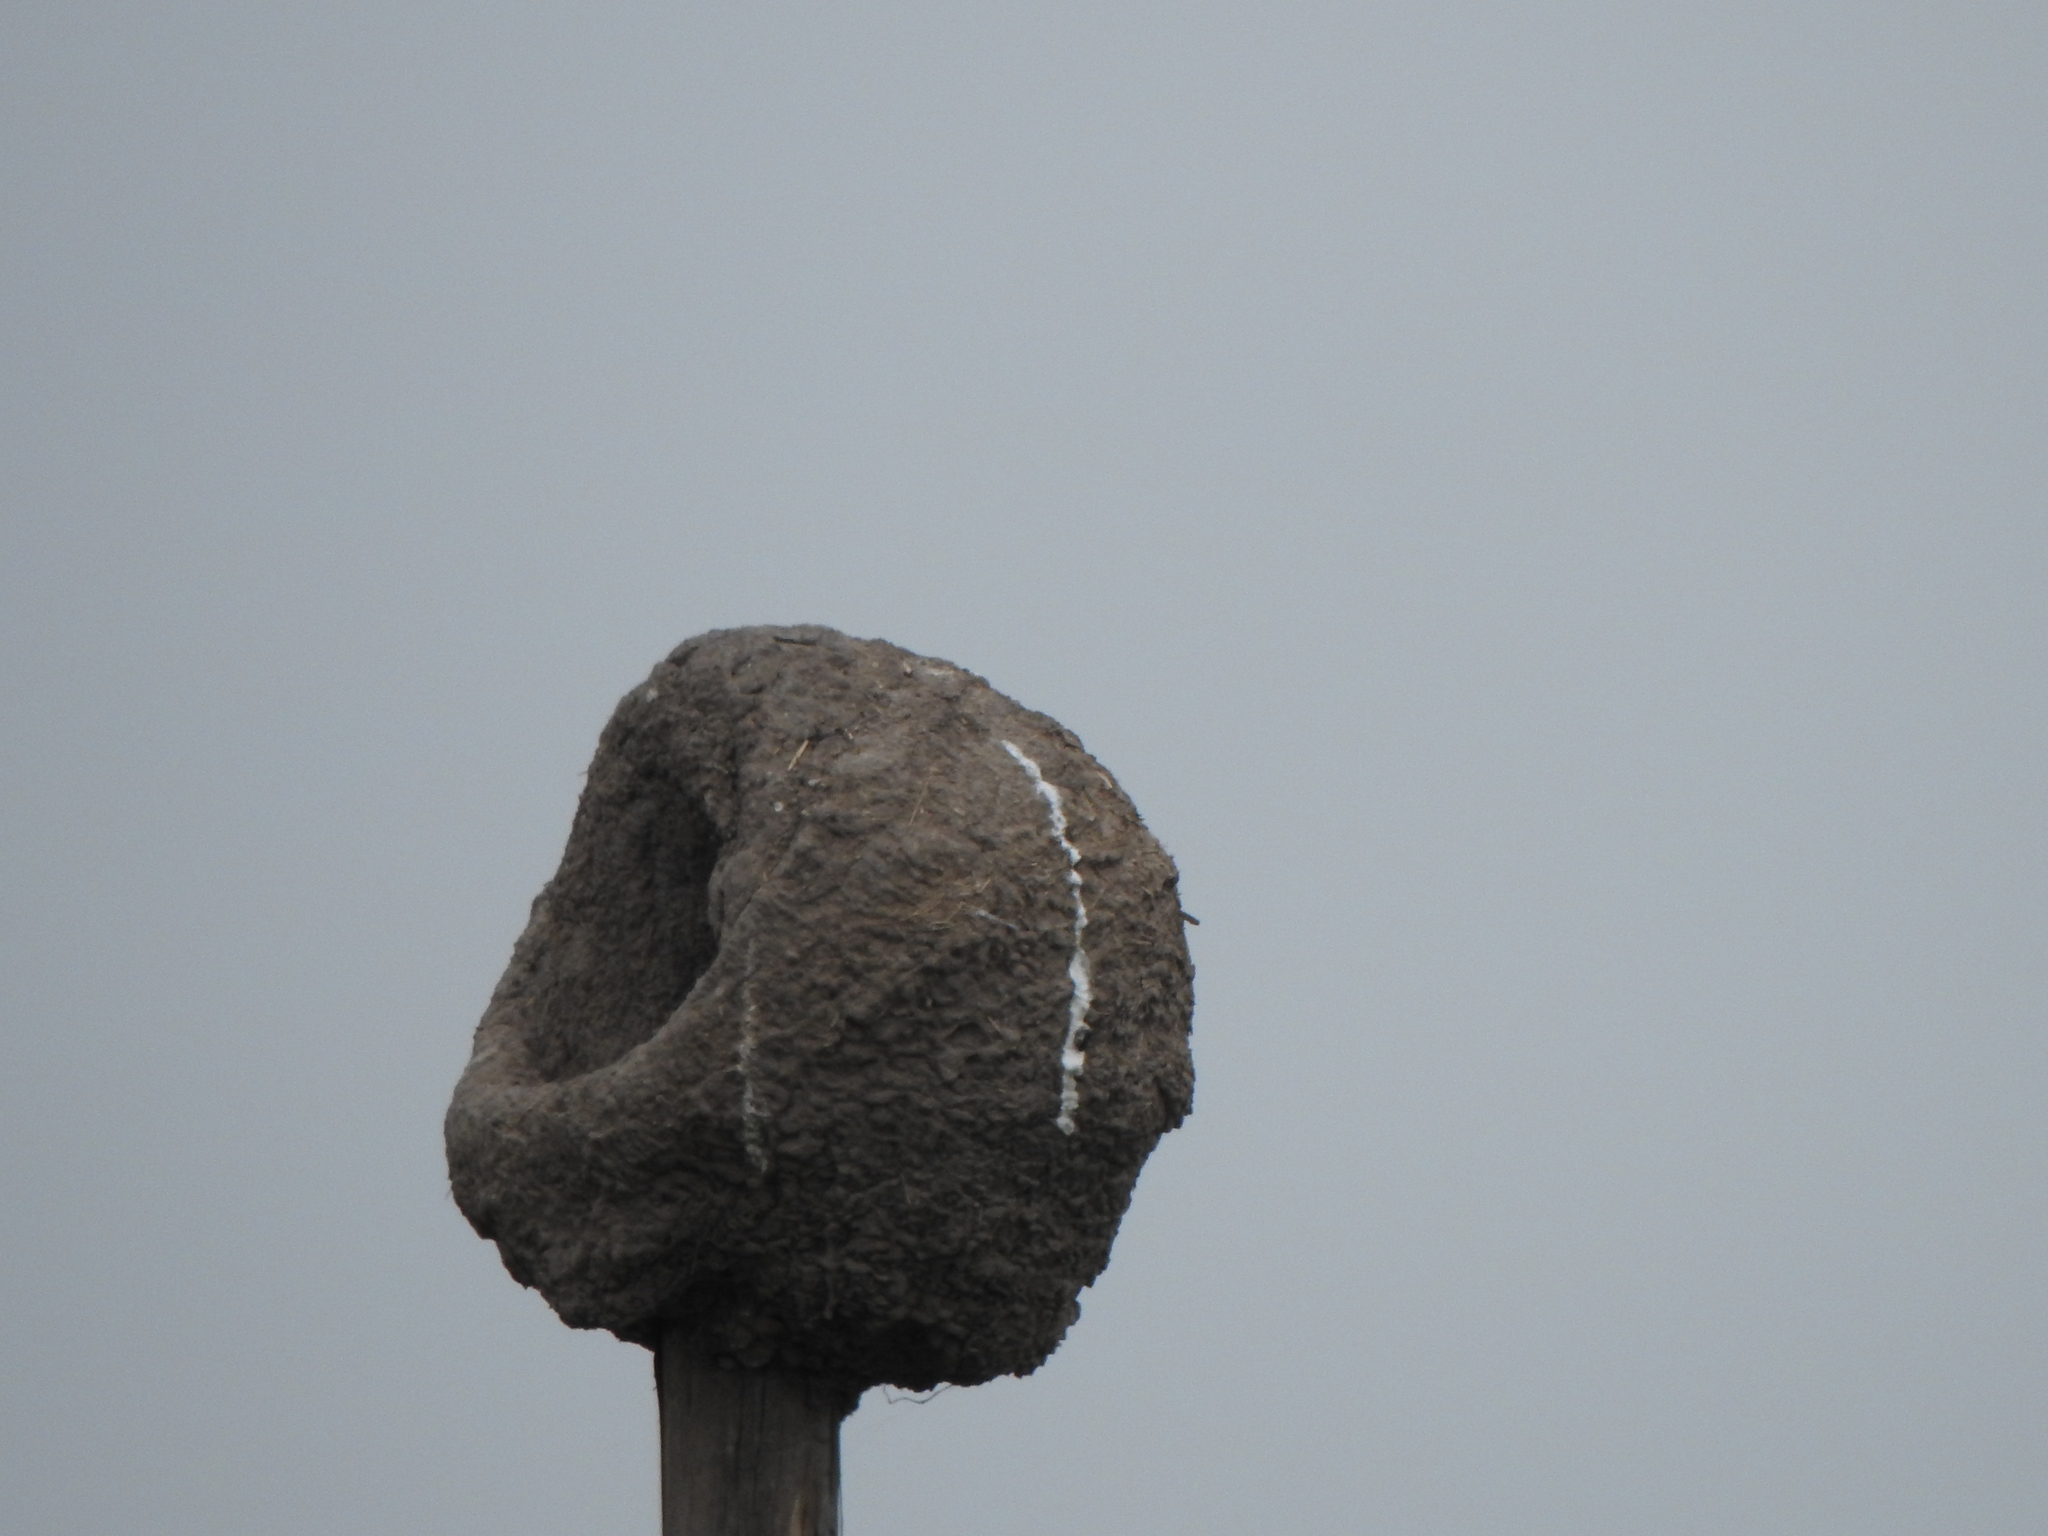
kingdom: Animalia
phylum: Chordata
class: Aves
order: Passeriformes
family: Furnariidae
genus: Furnarius
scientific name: Furnarius rufus
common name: Rufous hornero
